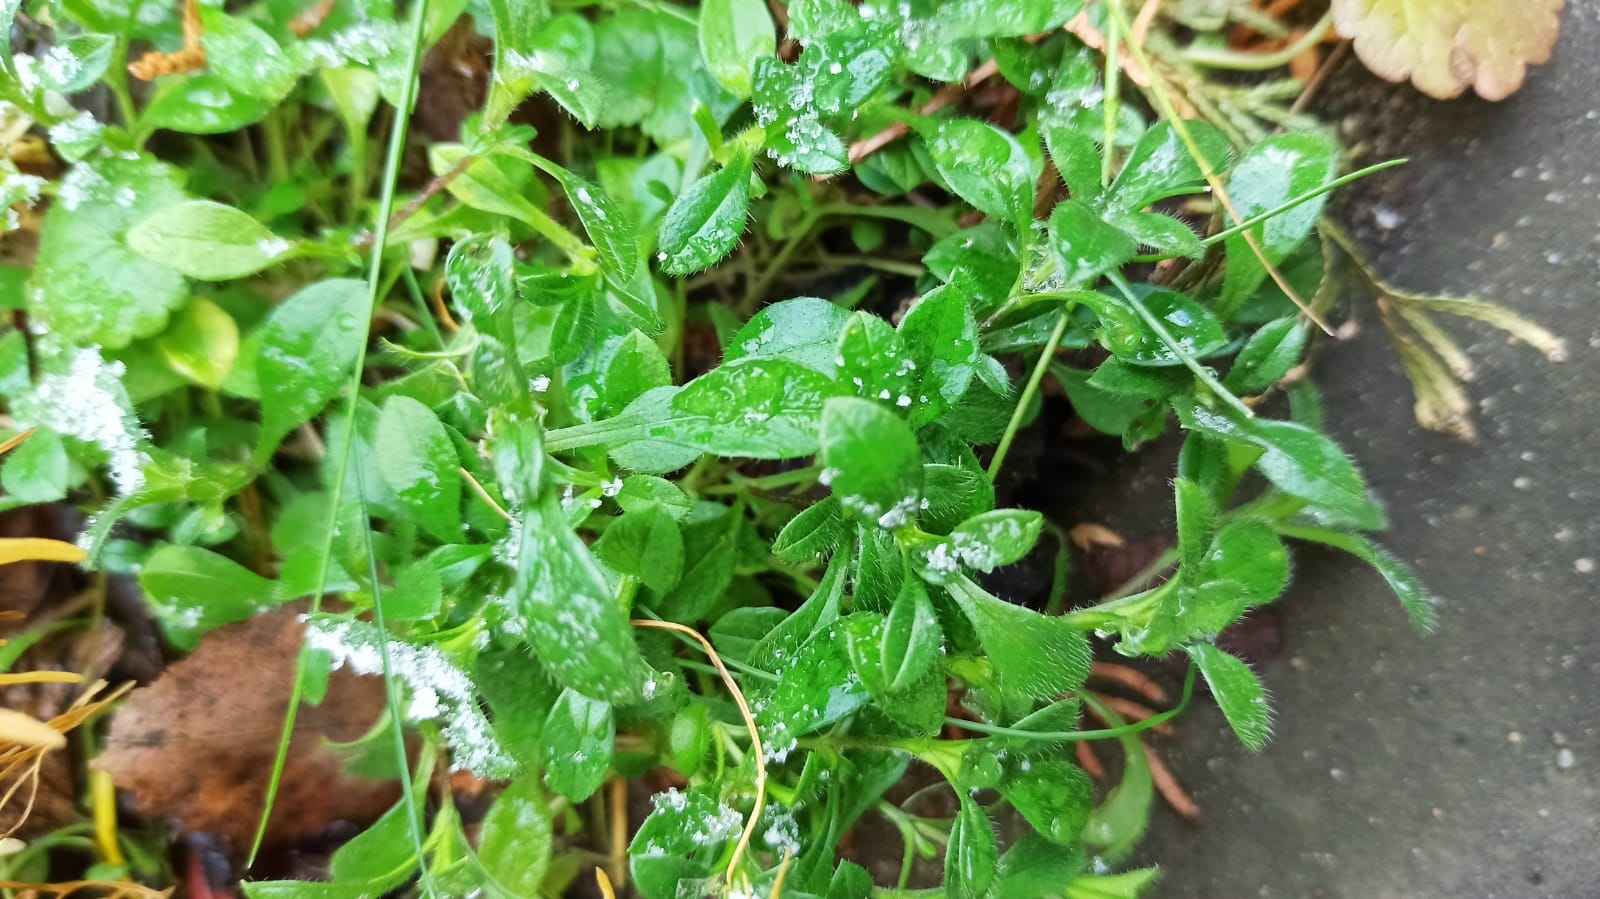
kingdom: Plantae
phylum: Tracheophyta
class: Magnoliopsida
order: Caryophyllales
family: Caryophyllaceae
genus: Cerastium
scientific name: Cerastium holosteoides
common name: Big chickweed
